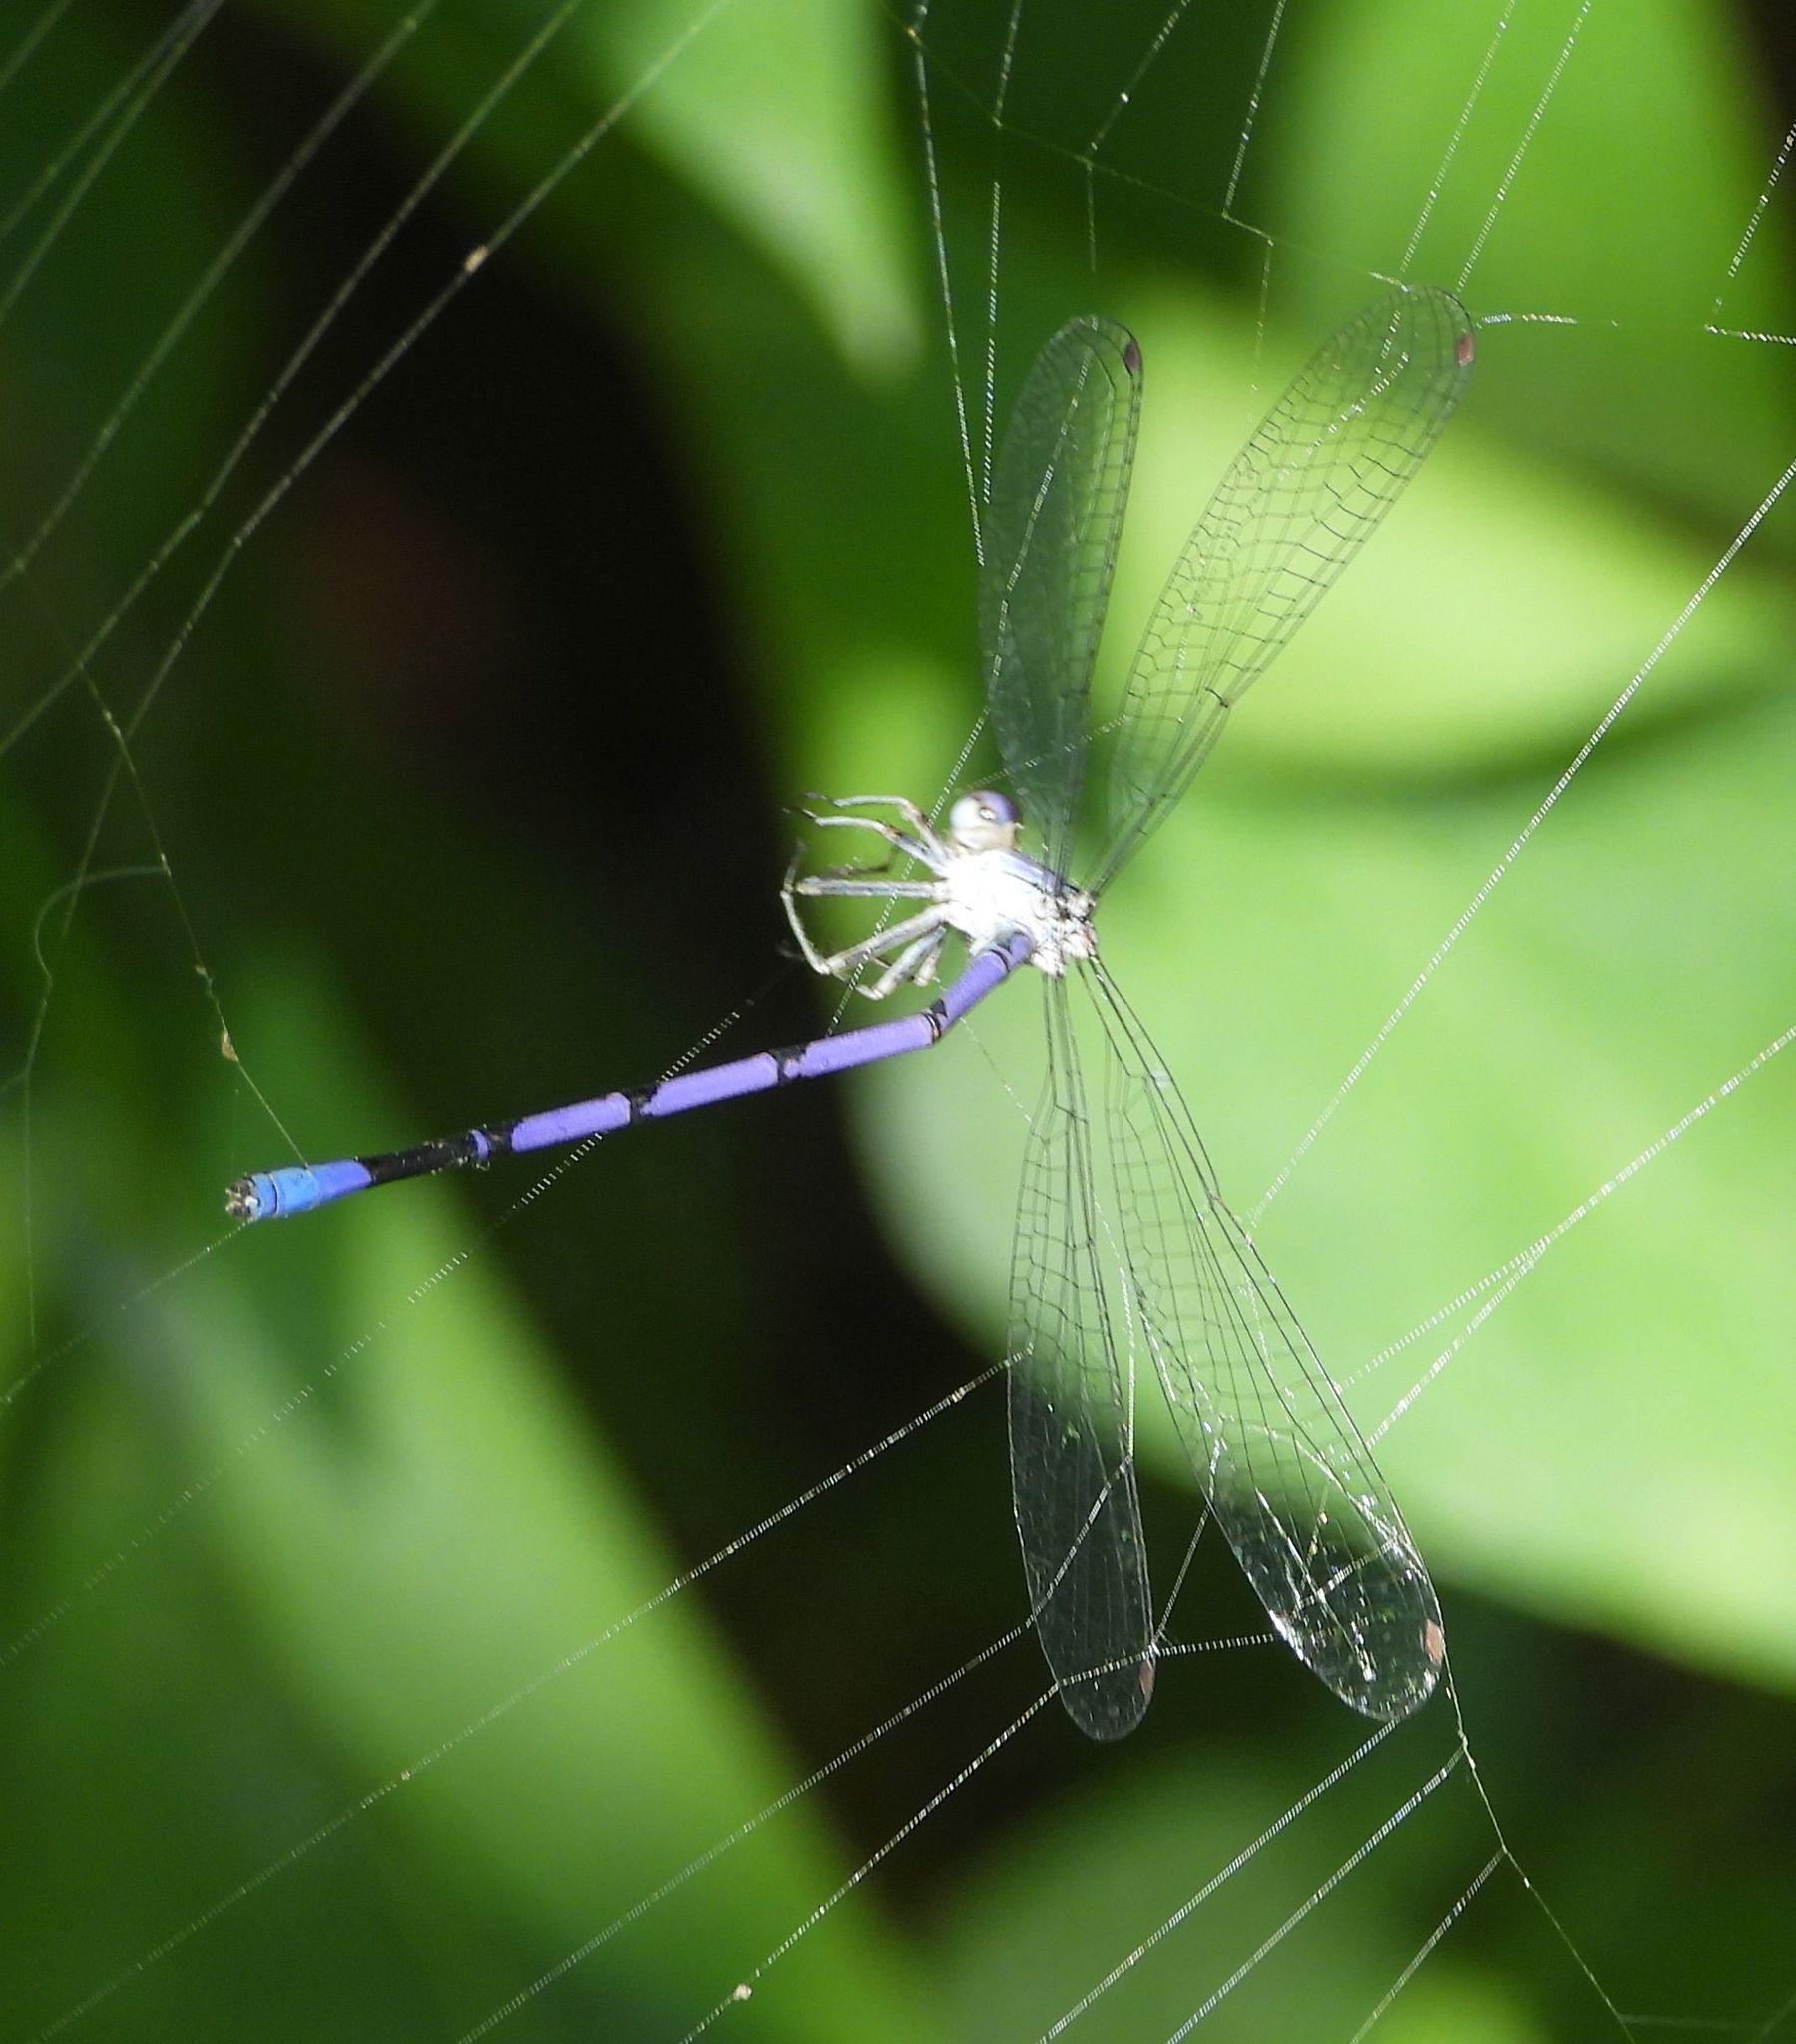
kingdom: Animalia
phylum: Arthropoda
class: Insecta
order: Odonata
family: Coenagrionidae
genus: Argia
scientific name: Argia fumipennis
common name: Variable dancer
